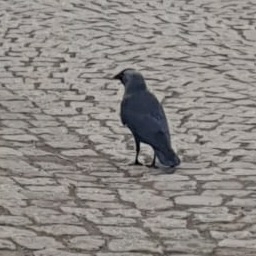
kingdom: Animalia
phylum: Chordata
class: Aves
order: Passeriformes
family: Corvidae
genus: Coloeus
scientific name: Coloeus monedula
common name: Western jackdaw
